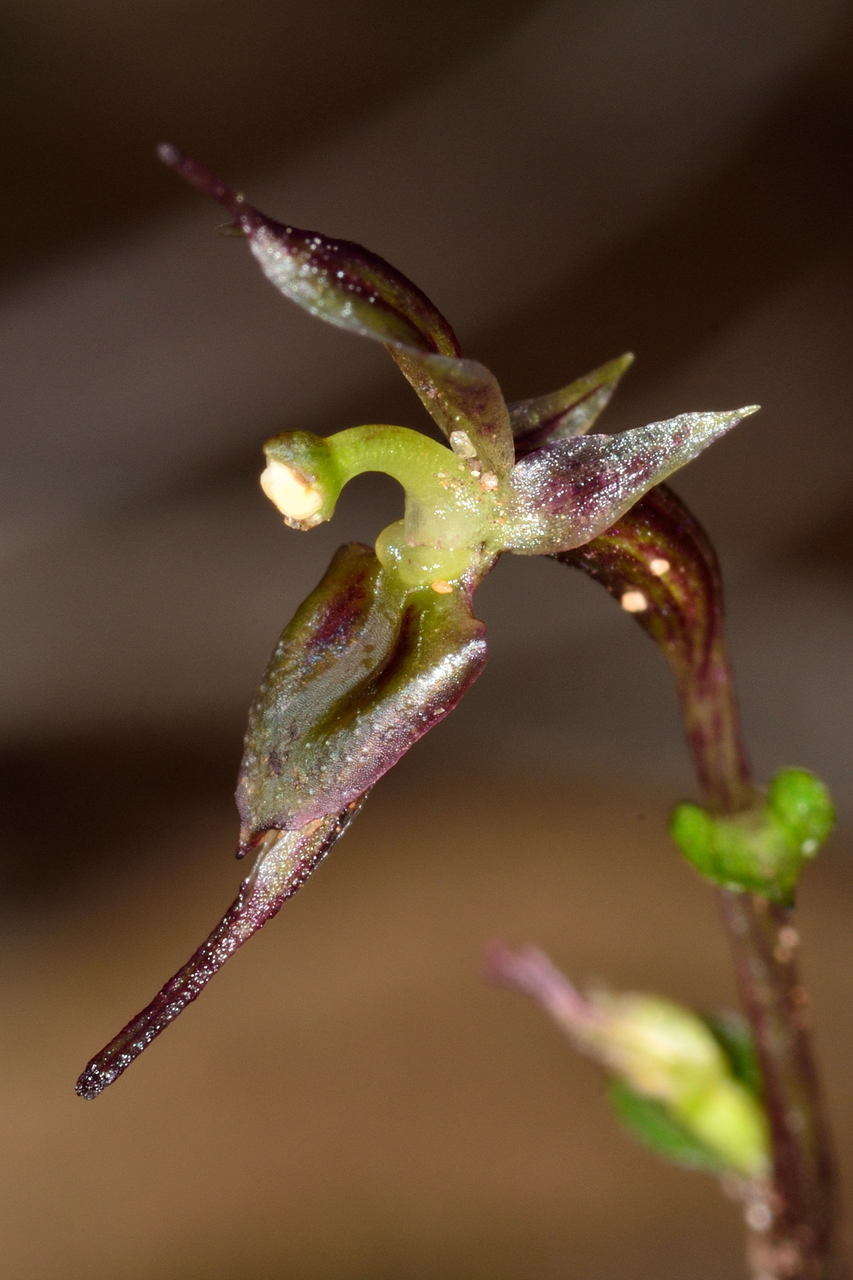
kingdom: Plantae
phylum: Tracheophyta
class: Liliopsida
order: Asparagales
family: Orchidaceae
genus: Acianthus
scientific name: Acianthus pusillus
